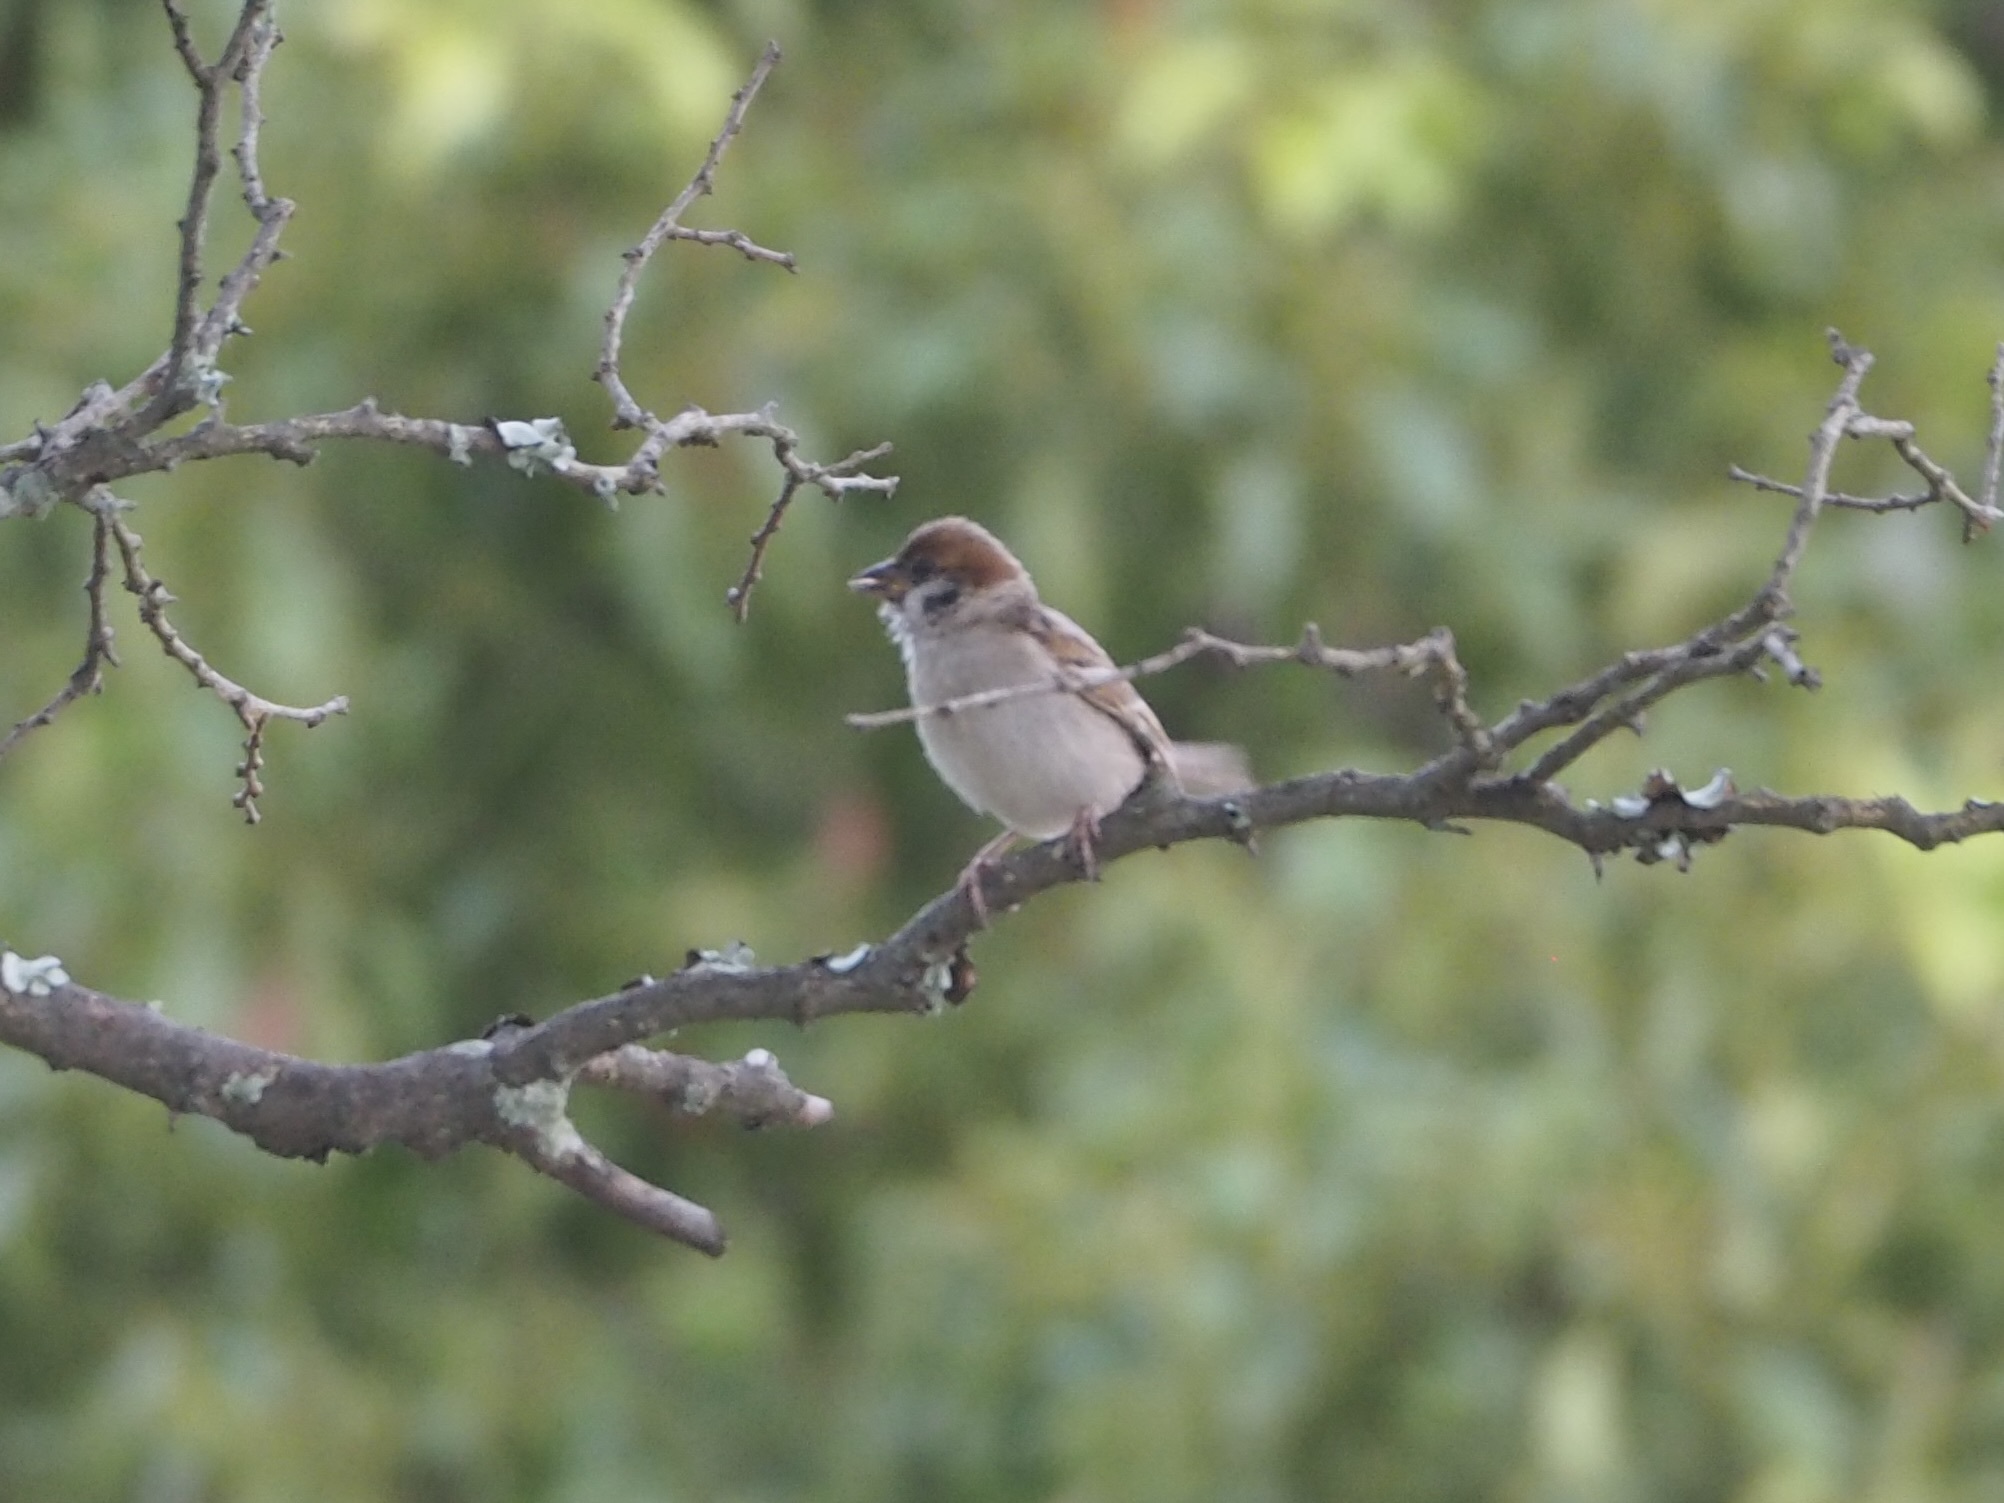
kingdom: Animalia
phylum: Chordata
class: Aves
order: Passeriformes
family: Passeridae
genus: Passer
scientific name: Passer montanus
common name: Eurasian tree sparrow
